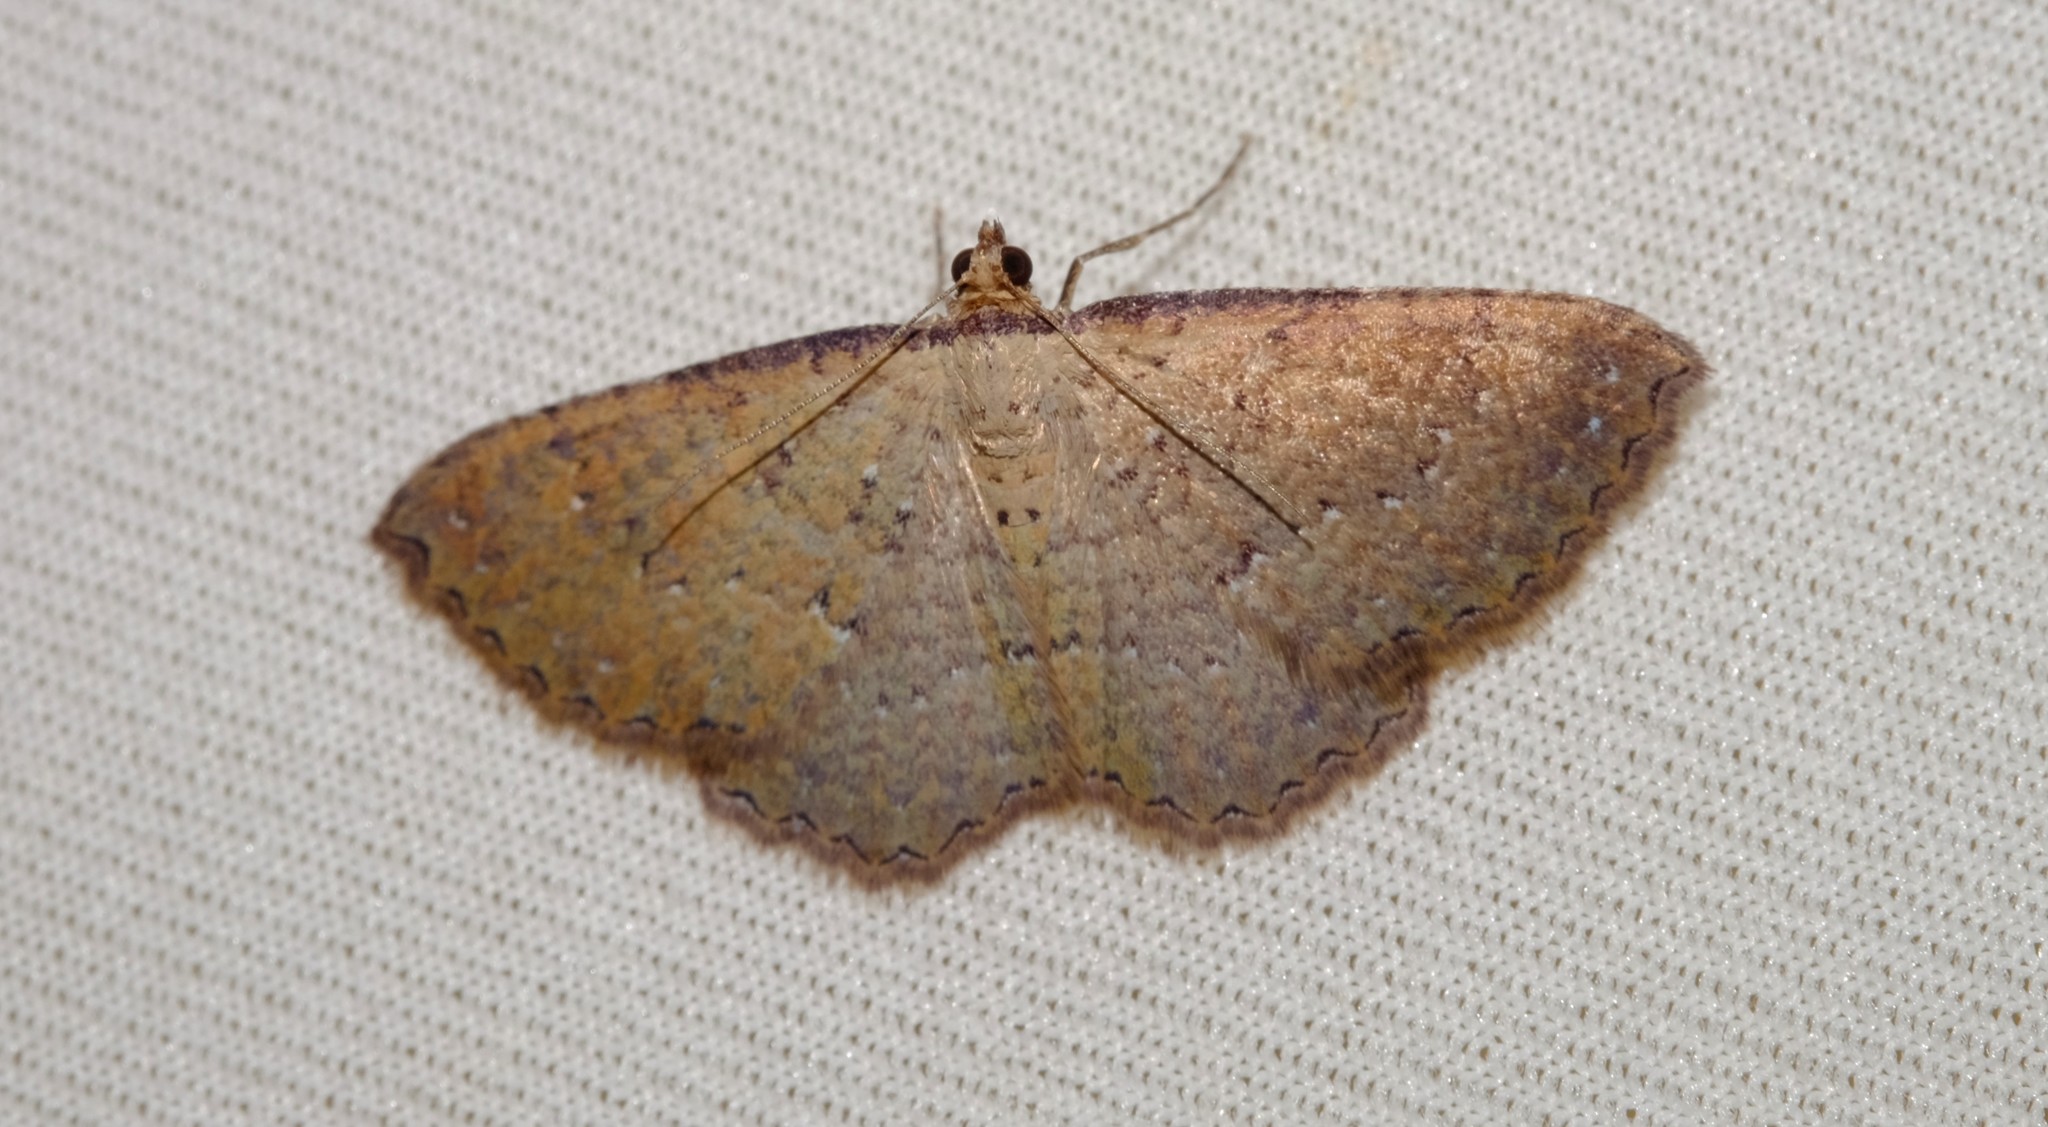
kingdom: Animalia
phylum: Arthropoda
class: Insecta
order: Lepidoptera
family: Geometridae
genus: Chrysolarentia
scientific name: Chrysolarentia microcyma
